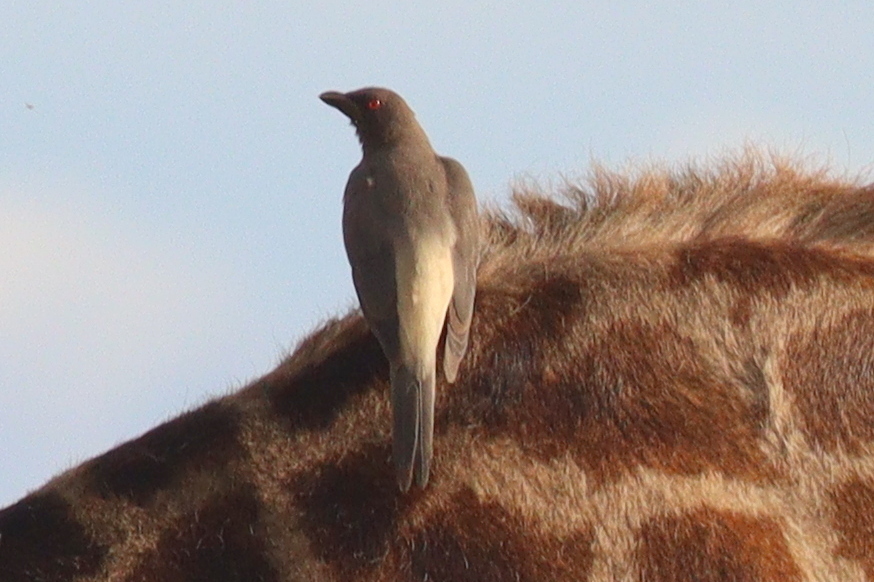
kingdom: Animalia
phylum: Chordata
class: Aves
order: Passeriformes
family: Buphagidae
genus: Buphagus
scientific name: Buphagus africanus
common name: Yellow-billed oxpecker
